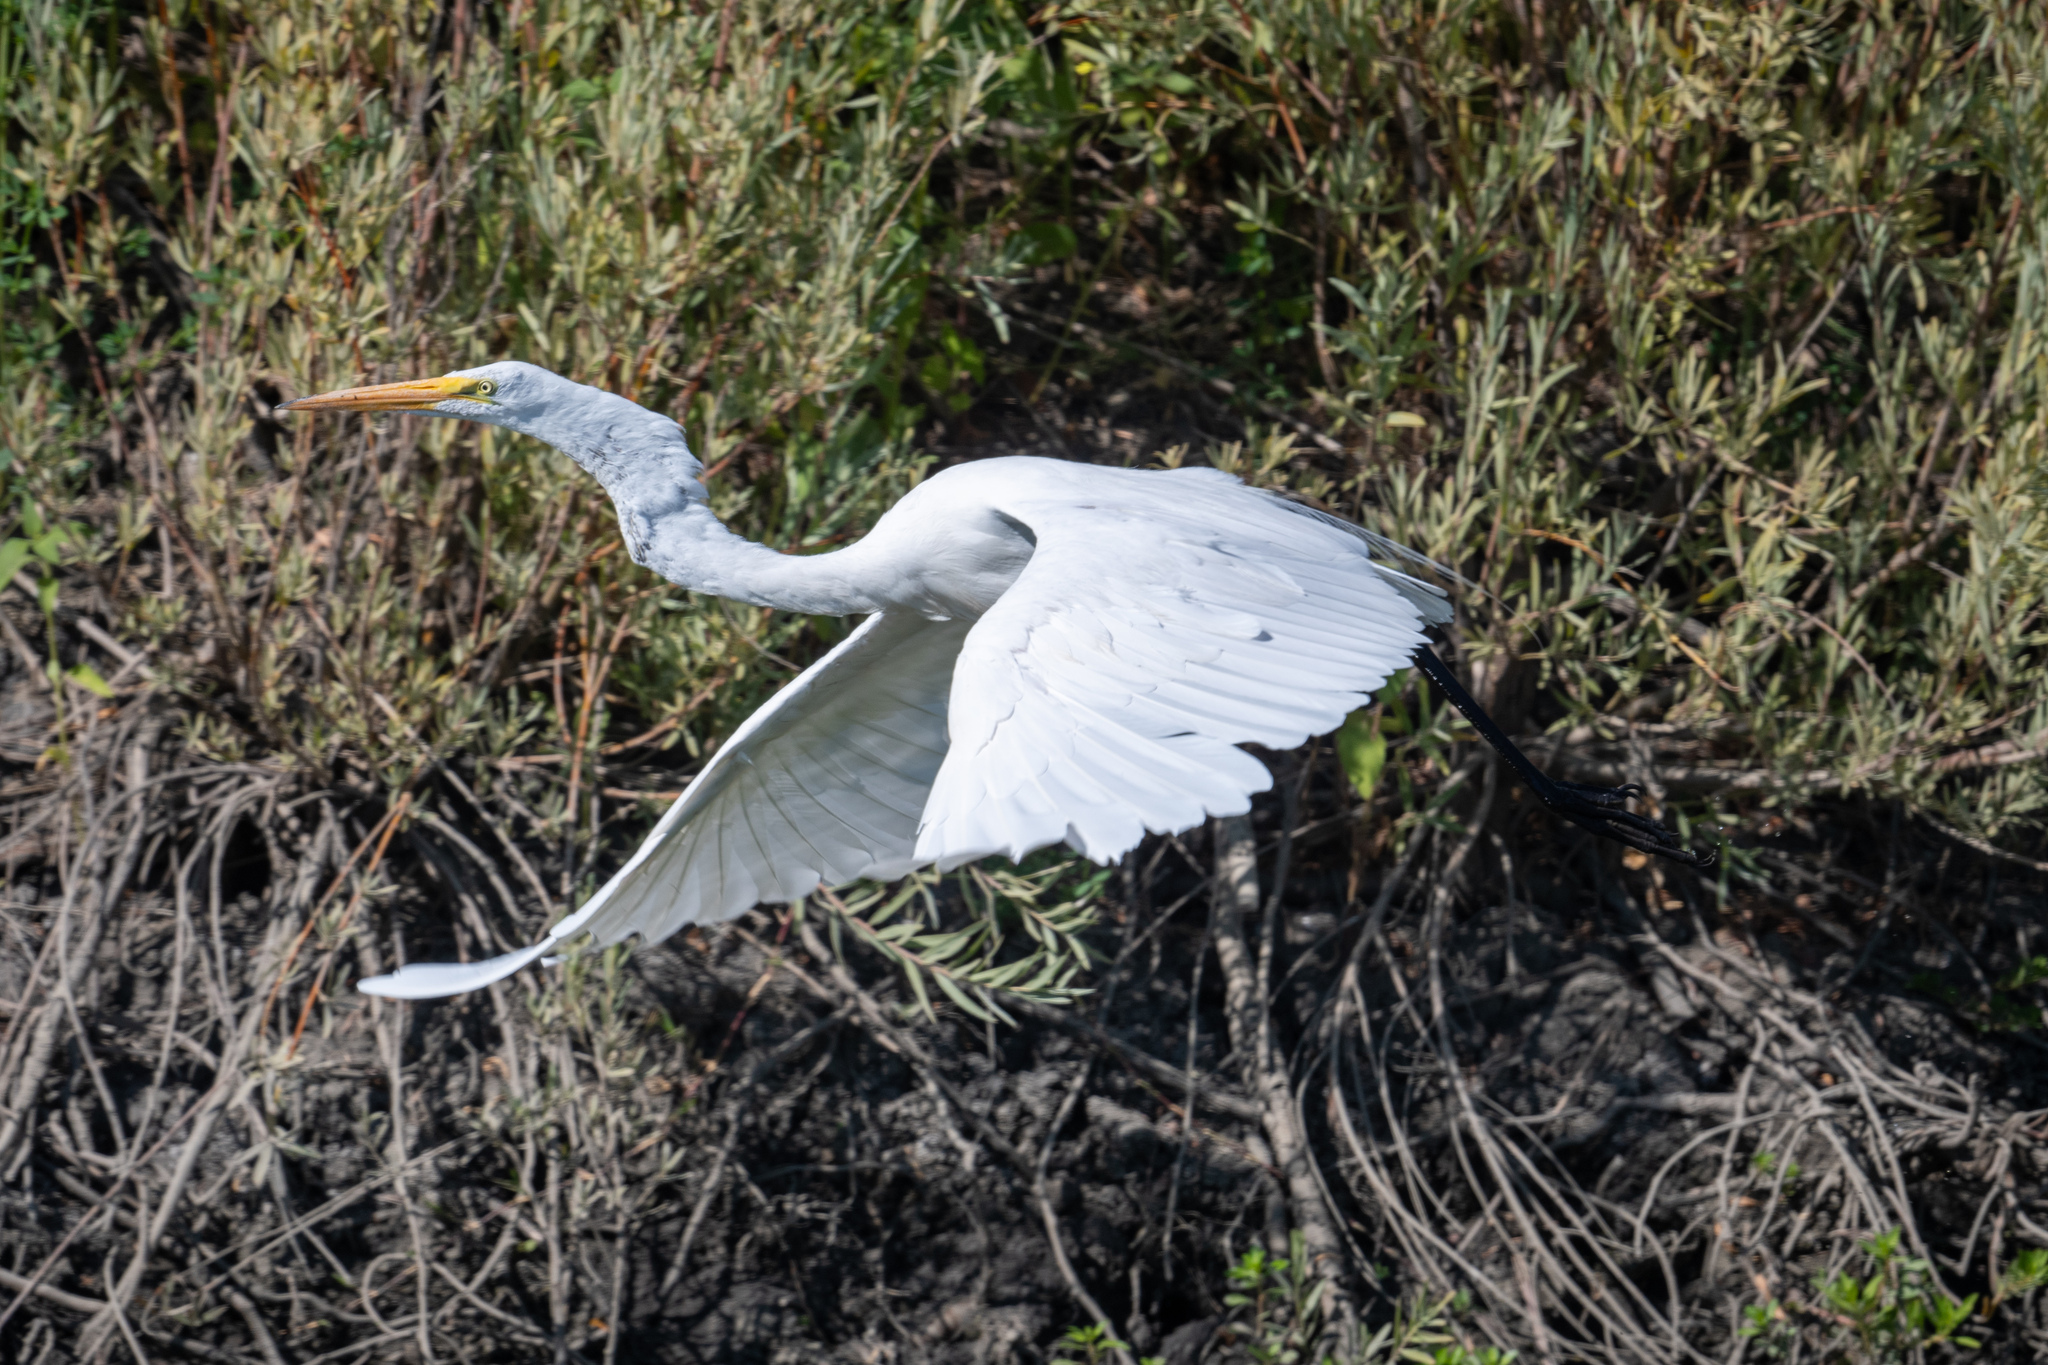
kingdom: Animalia
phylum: Chordata
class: Aves
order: Pelecaniformes
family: Ardeidae
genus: Ardea
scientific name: Ardea alba
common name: Great egret
